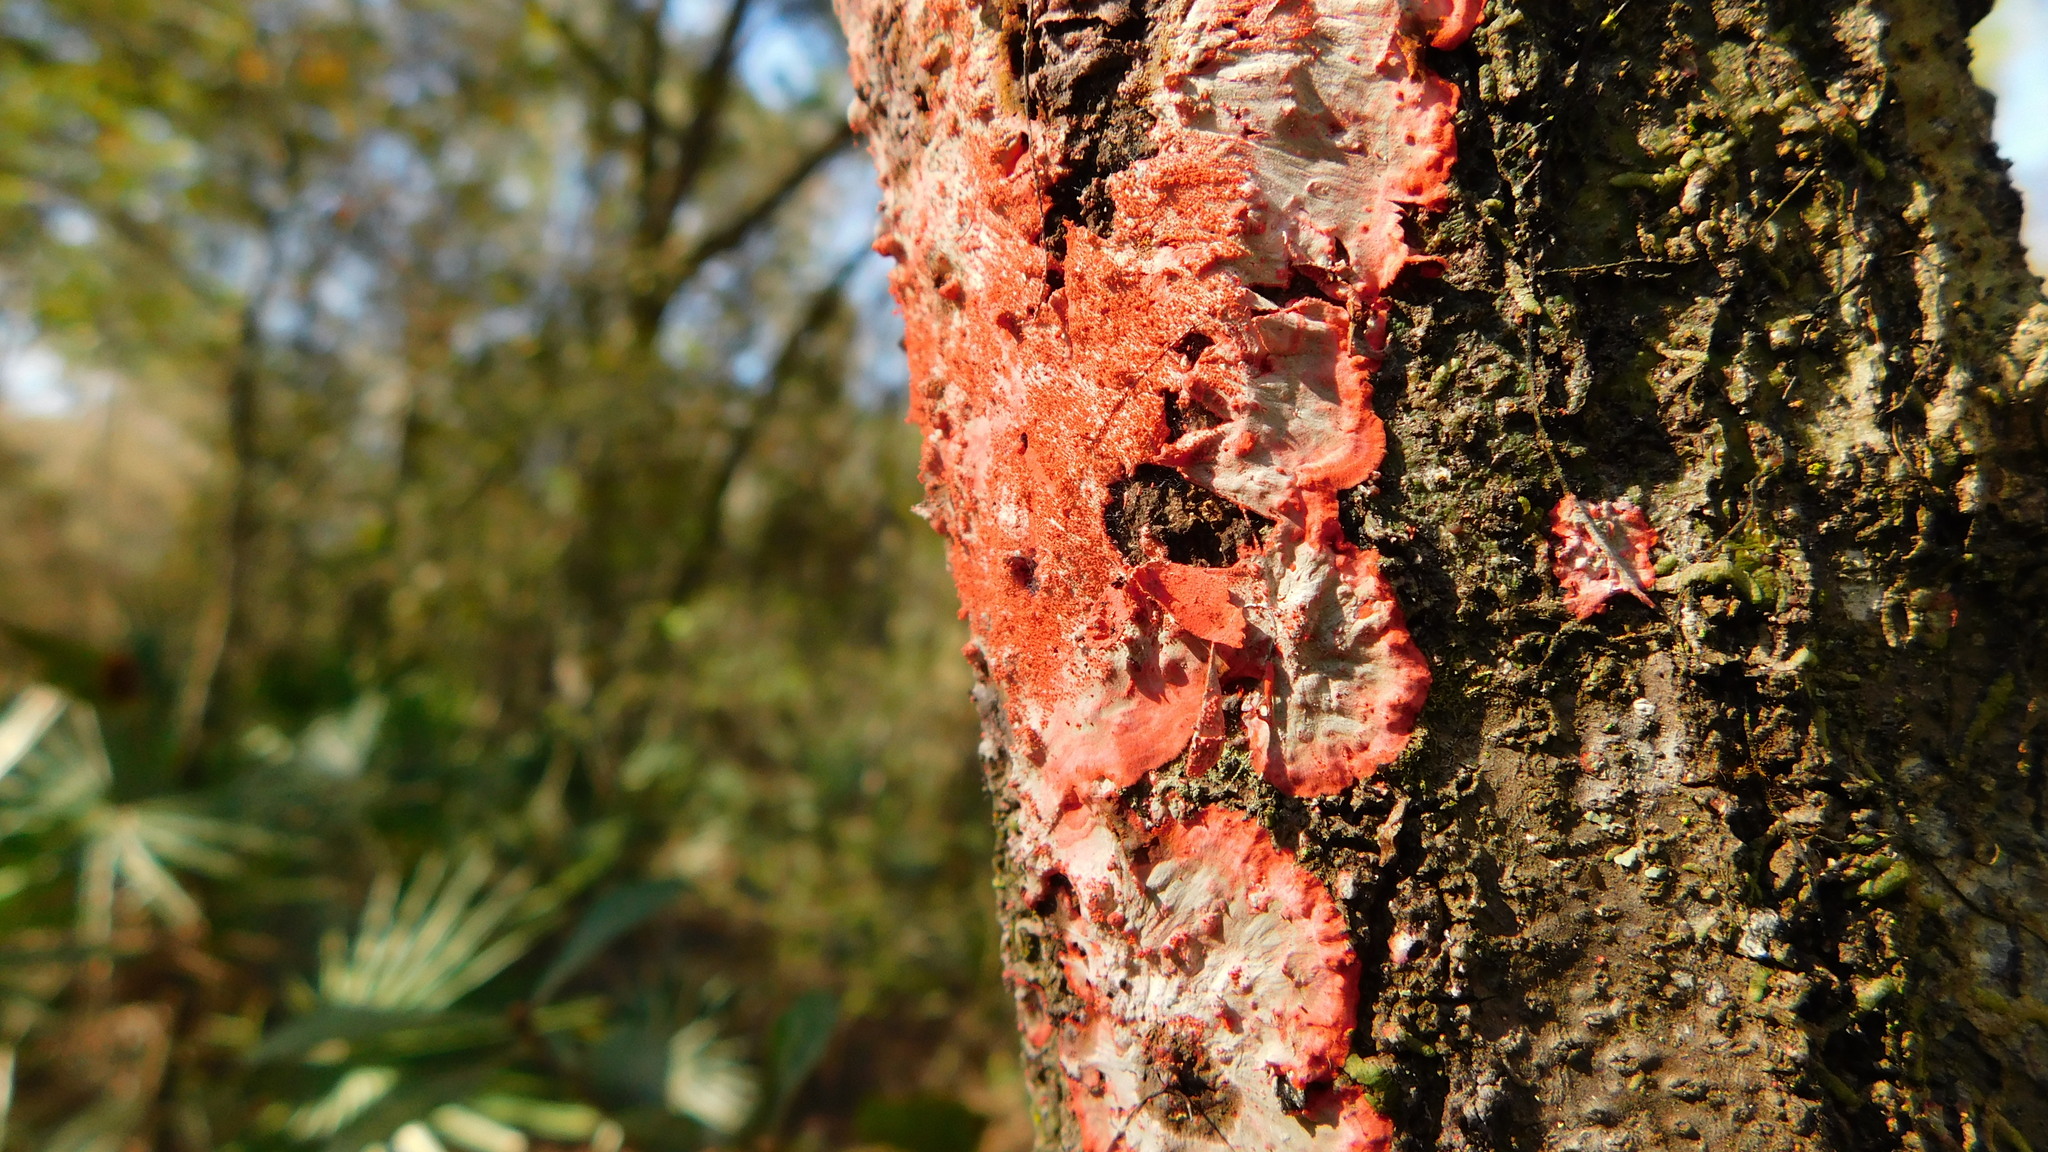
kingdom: Fungi
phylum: Ascomycota
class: Arthoniomycetes
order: Arthoniales
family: Arthoniaceae
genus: Herpothallon
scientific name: Herpothallon rubrocinctum
